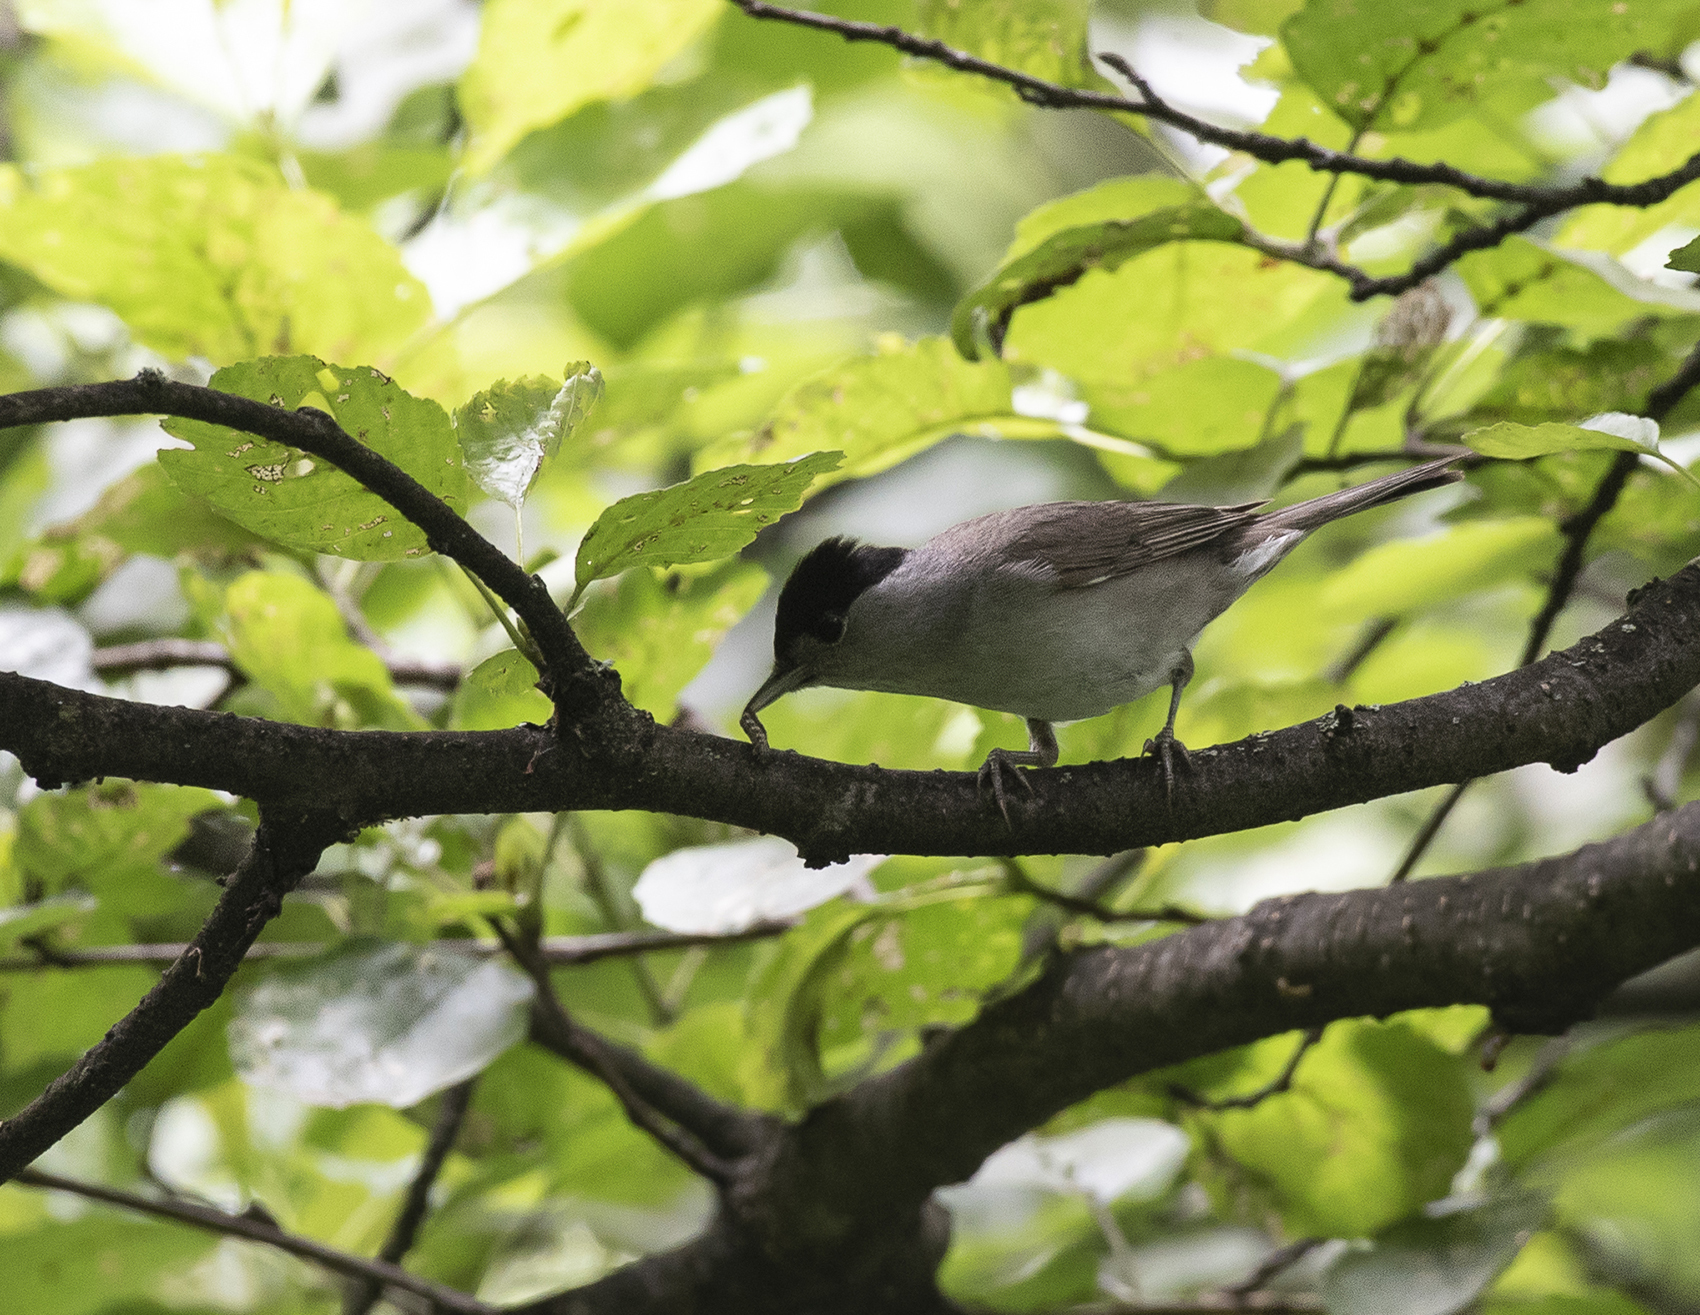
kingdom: Animalia
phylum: Chordata
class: Aves
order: Passeriformes
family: Sylviidae
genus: Sylvia
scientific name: Sylvia atricapilla
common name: Eurasian blackcap
